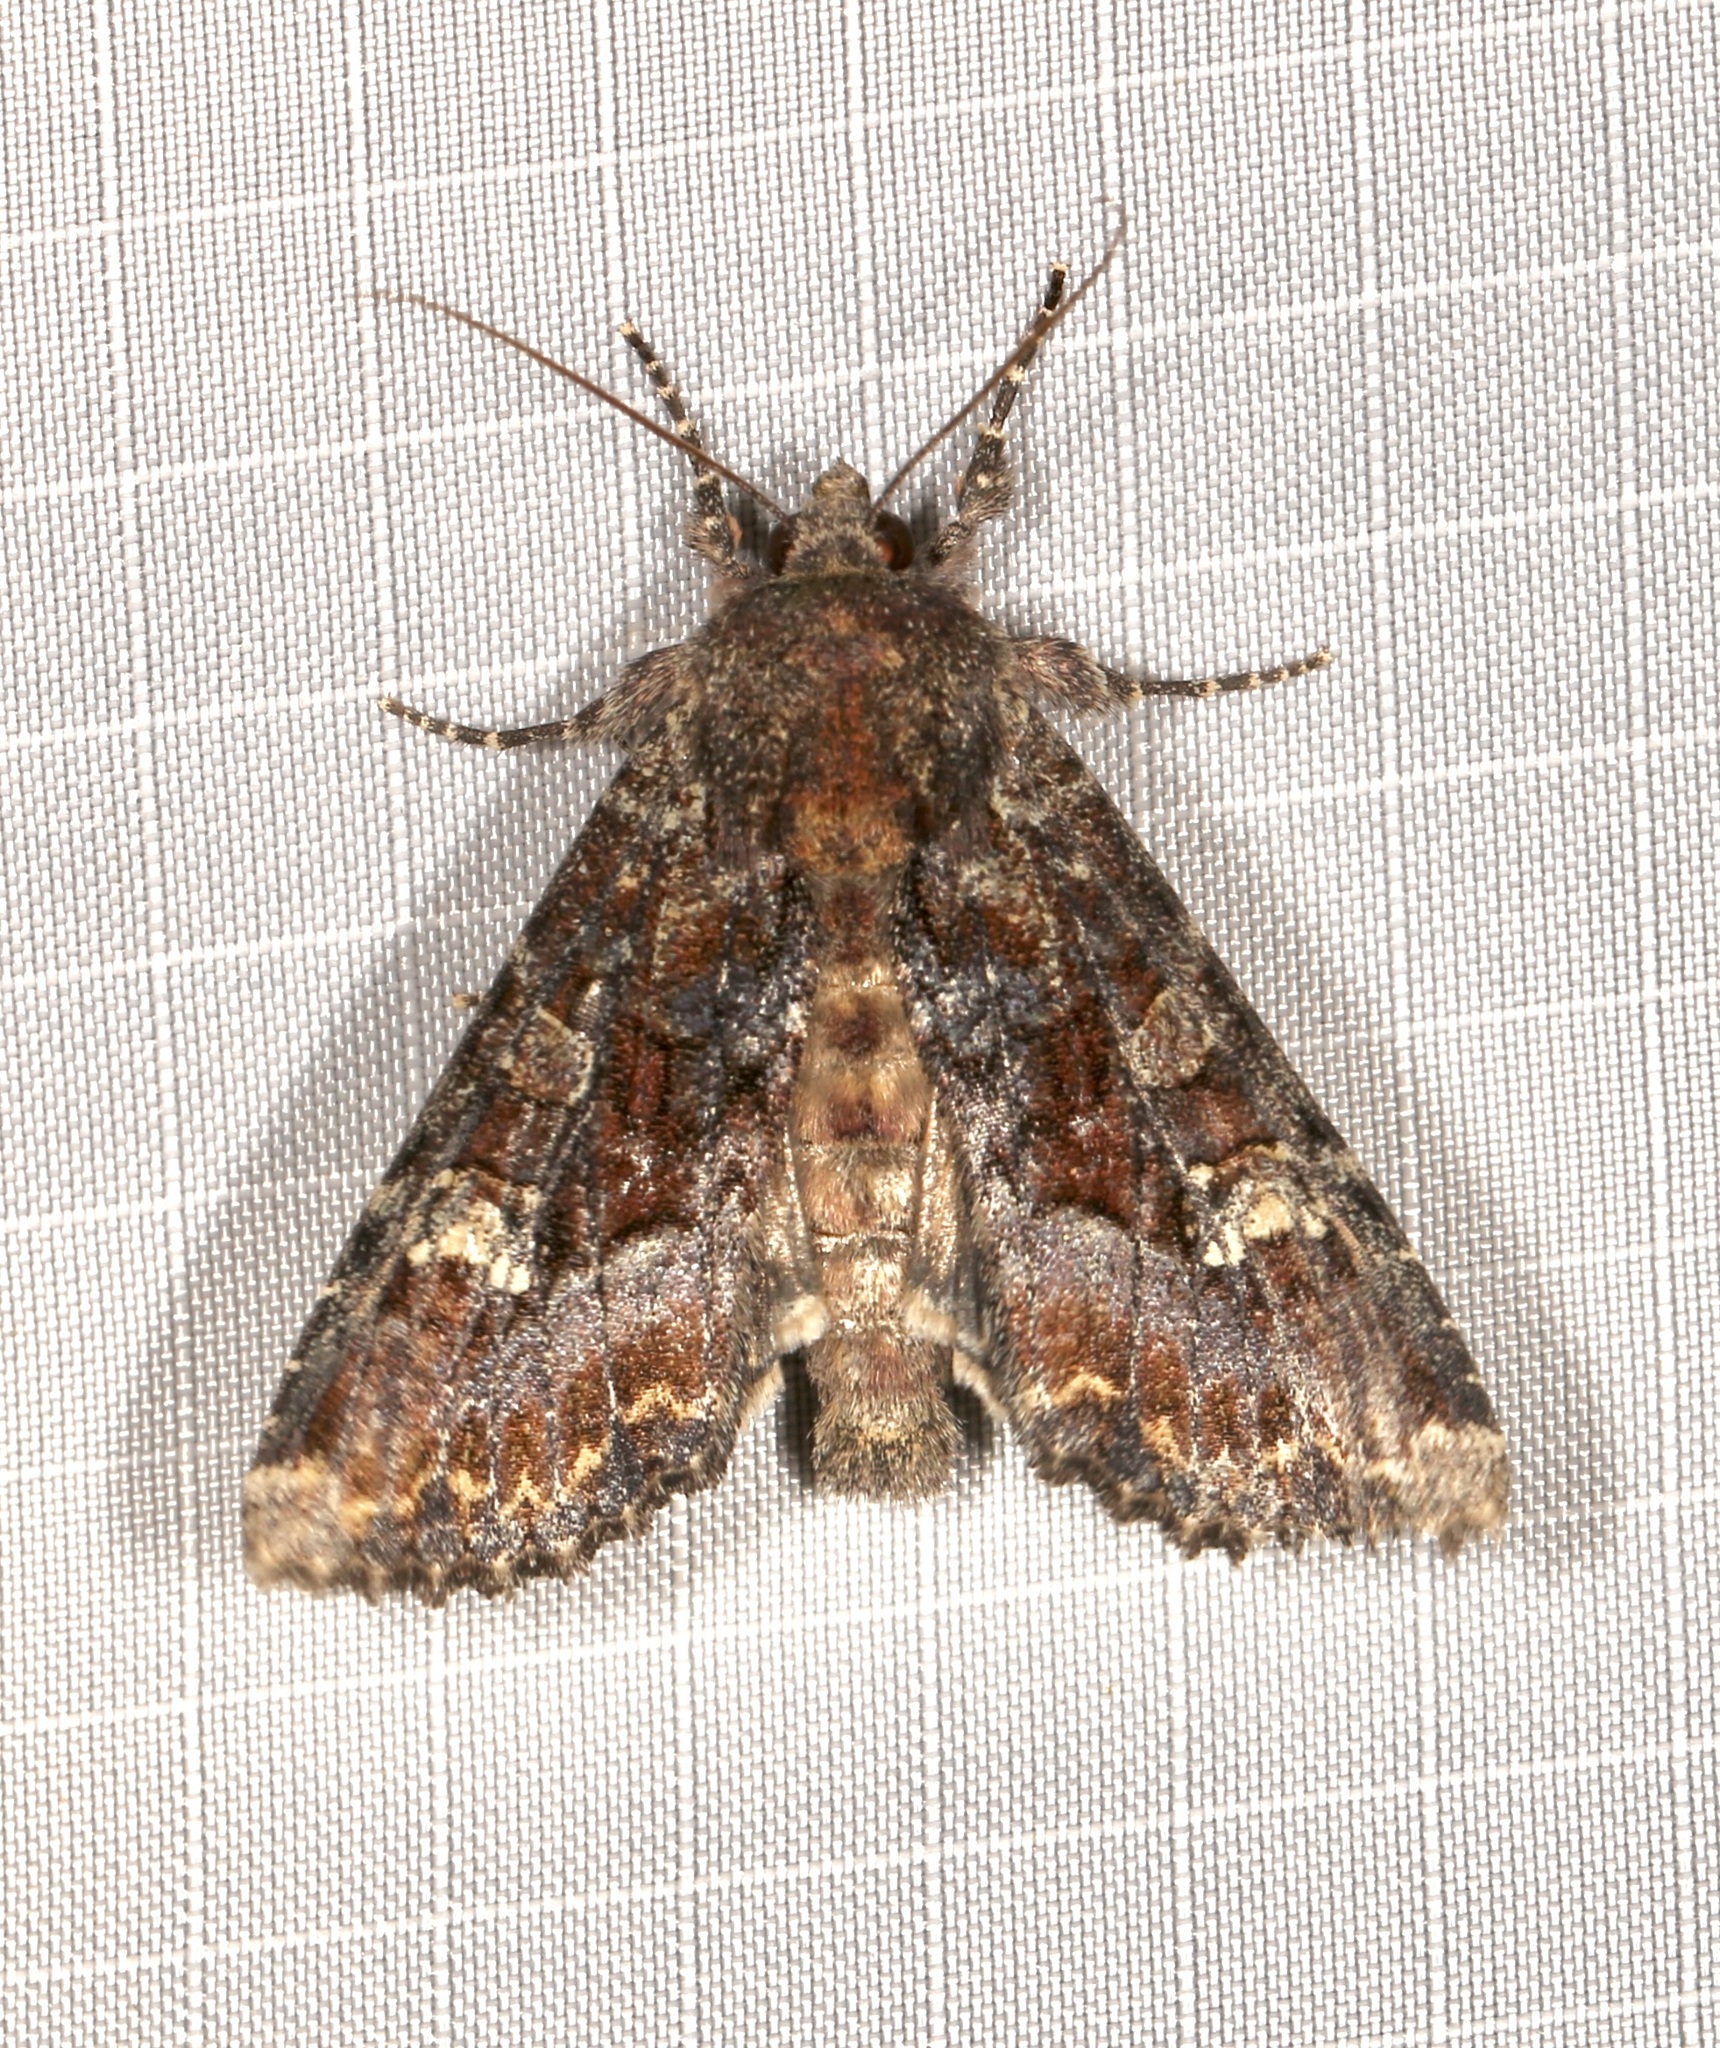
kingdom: Animalia
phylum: Arthropoda
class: Insecta
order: Lepidoptera
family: Noctuidae
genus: Apamea
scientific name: Apamea amputatrix
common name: Yellow-headed cutworm moth
